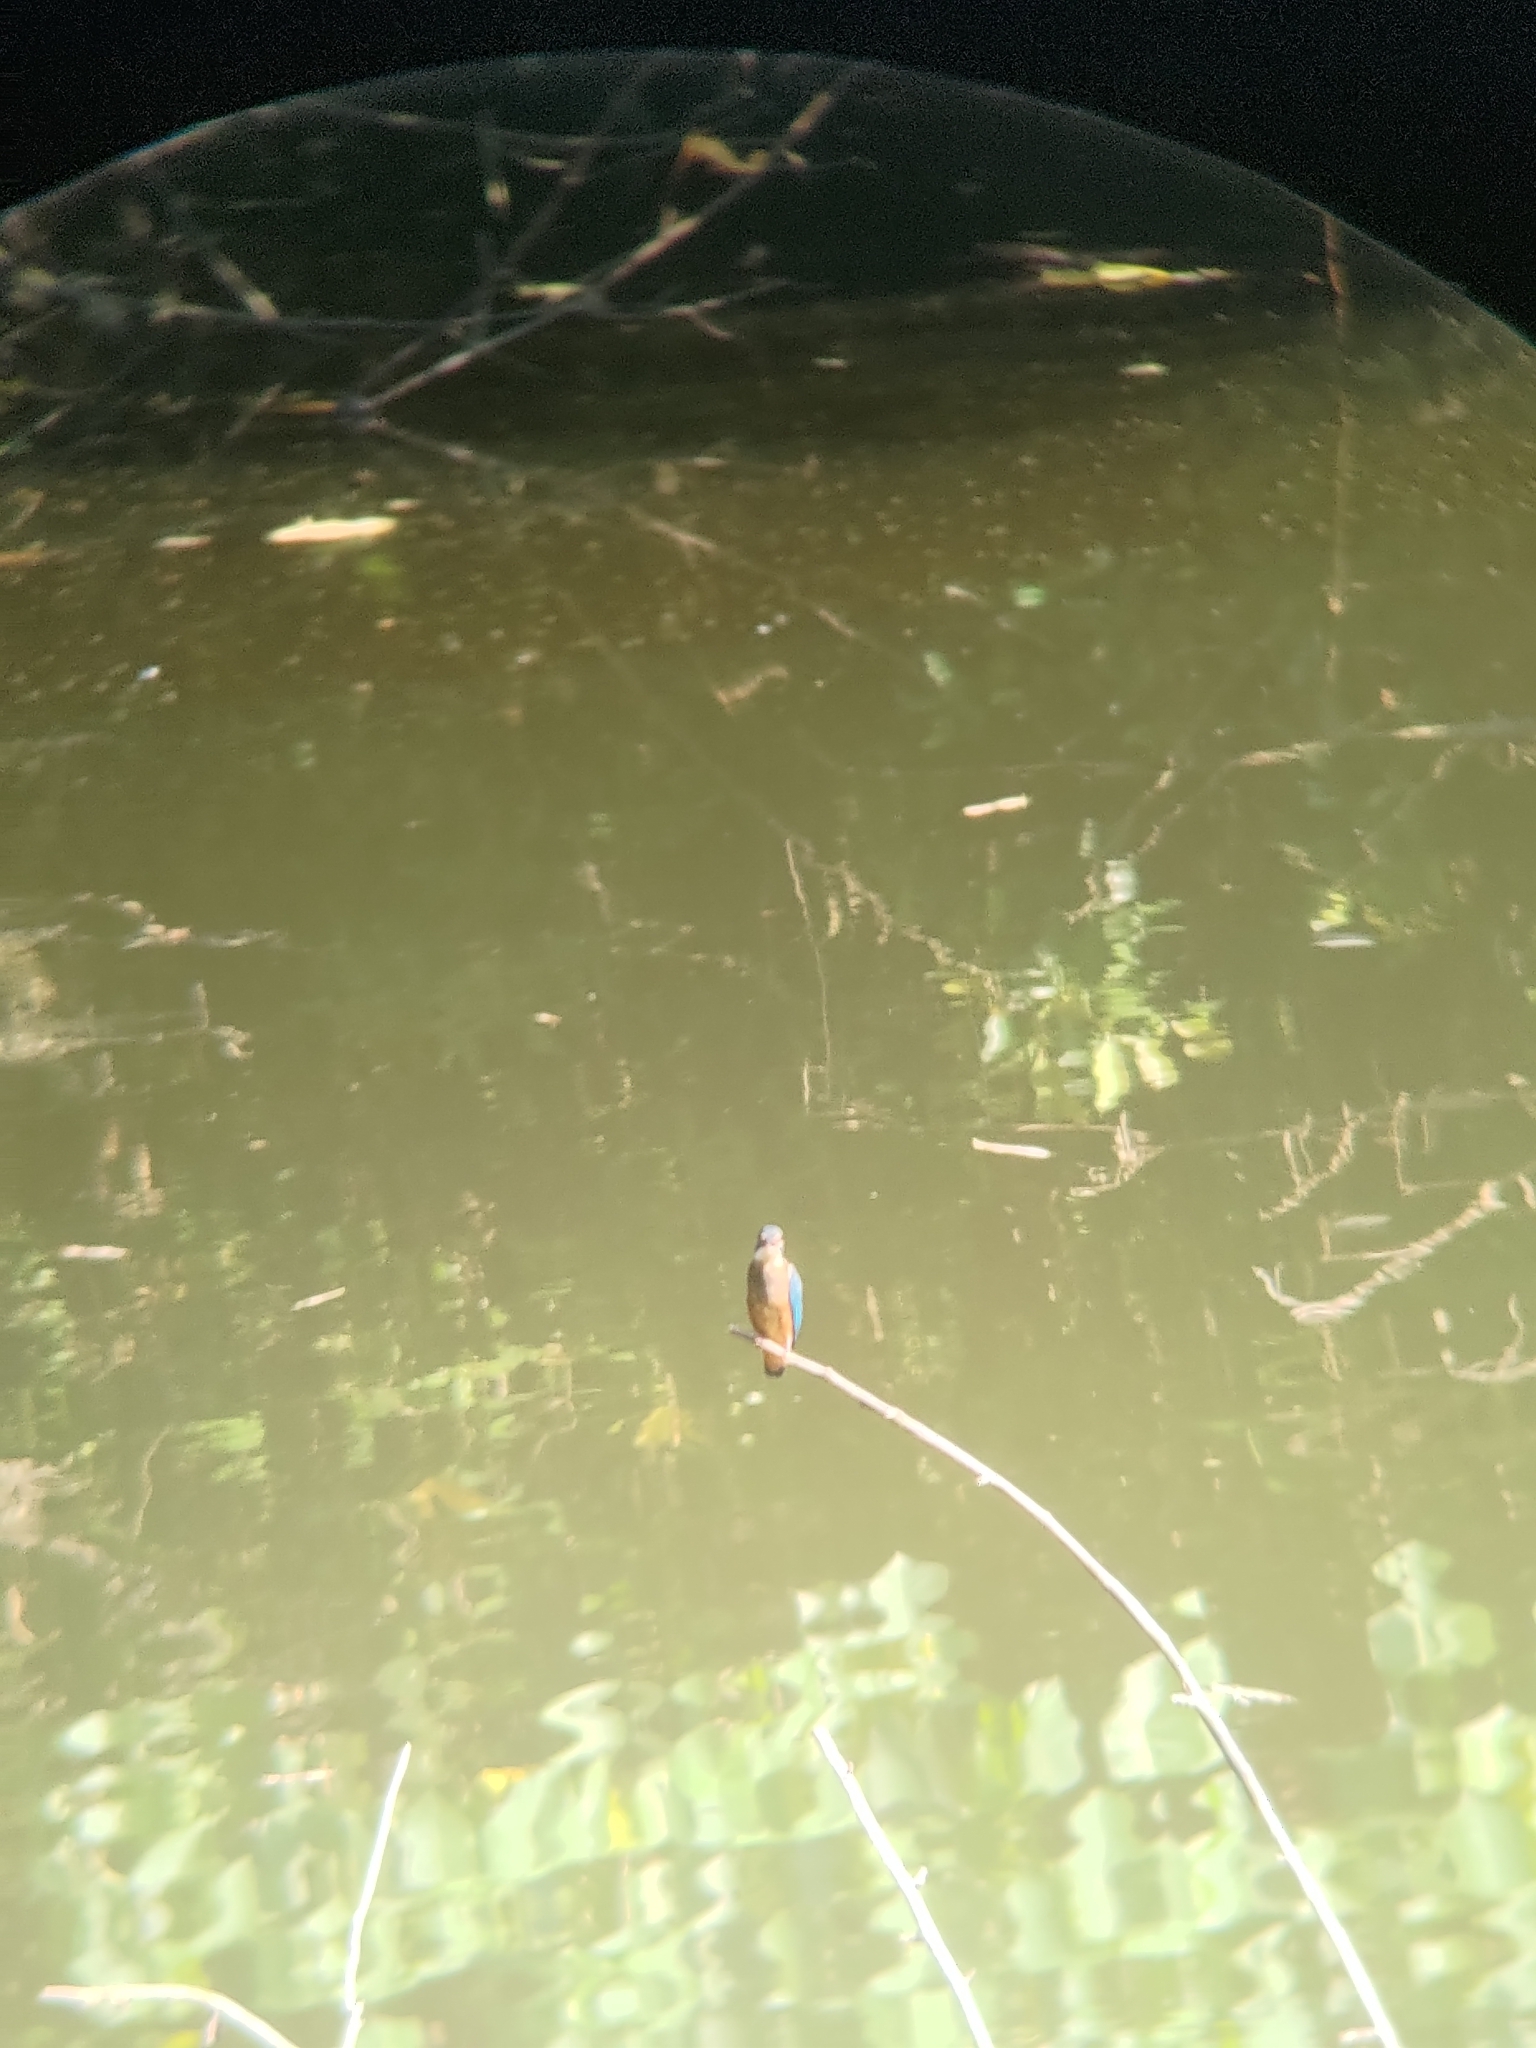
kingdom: Animalia
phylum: Chordata
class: Aves
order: Coraciiformes
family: Alcedinidae
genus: Alcedo
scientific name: Alcedo atthis
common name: Common kingfisher
